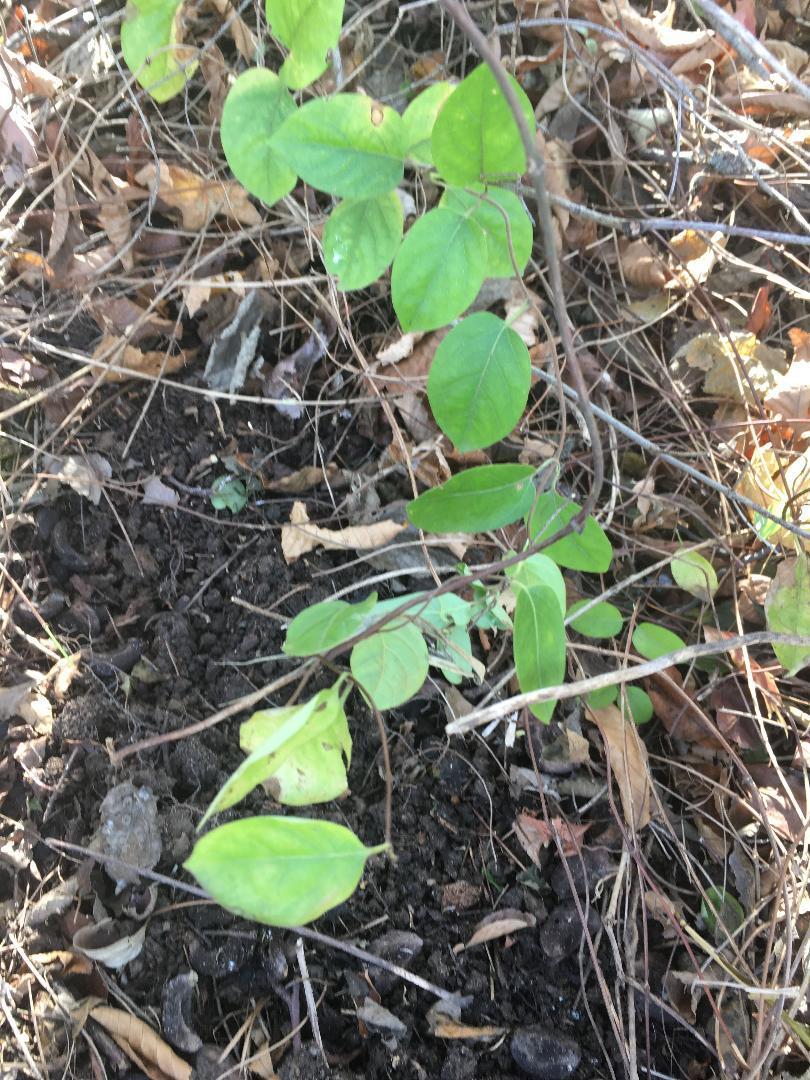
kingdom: Plantae
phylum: Tracheophyta
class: Magnoliopsida
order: Dipsacales
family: Caprifoliaceae
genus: Lonicera
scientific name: Lonicera japonica
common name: Japanese honeysuckle
